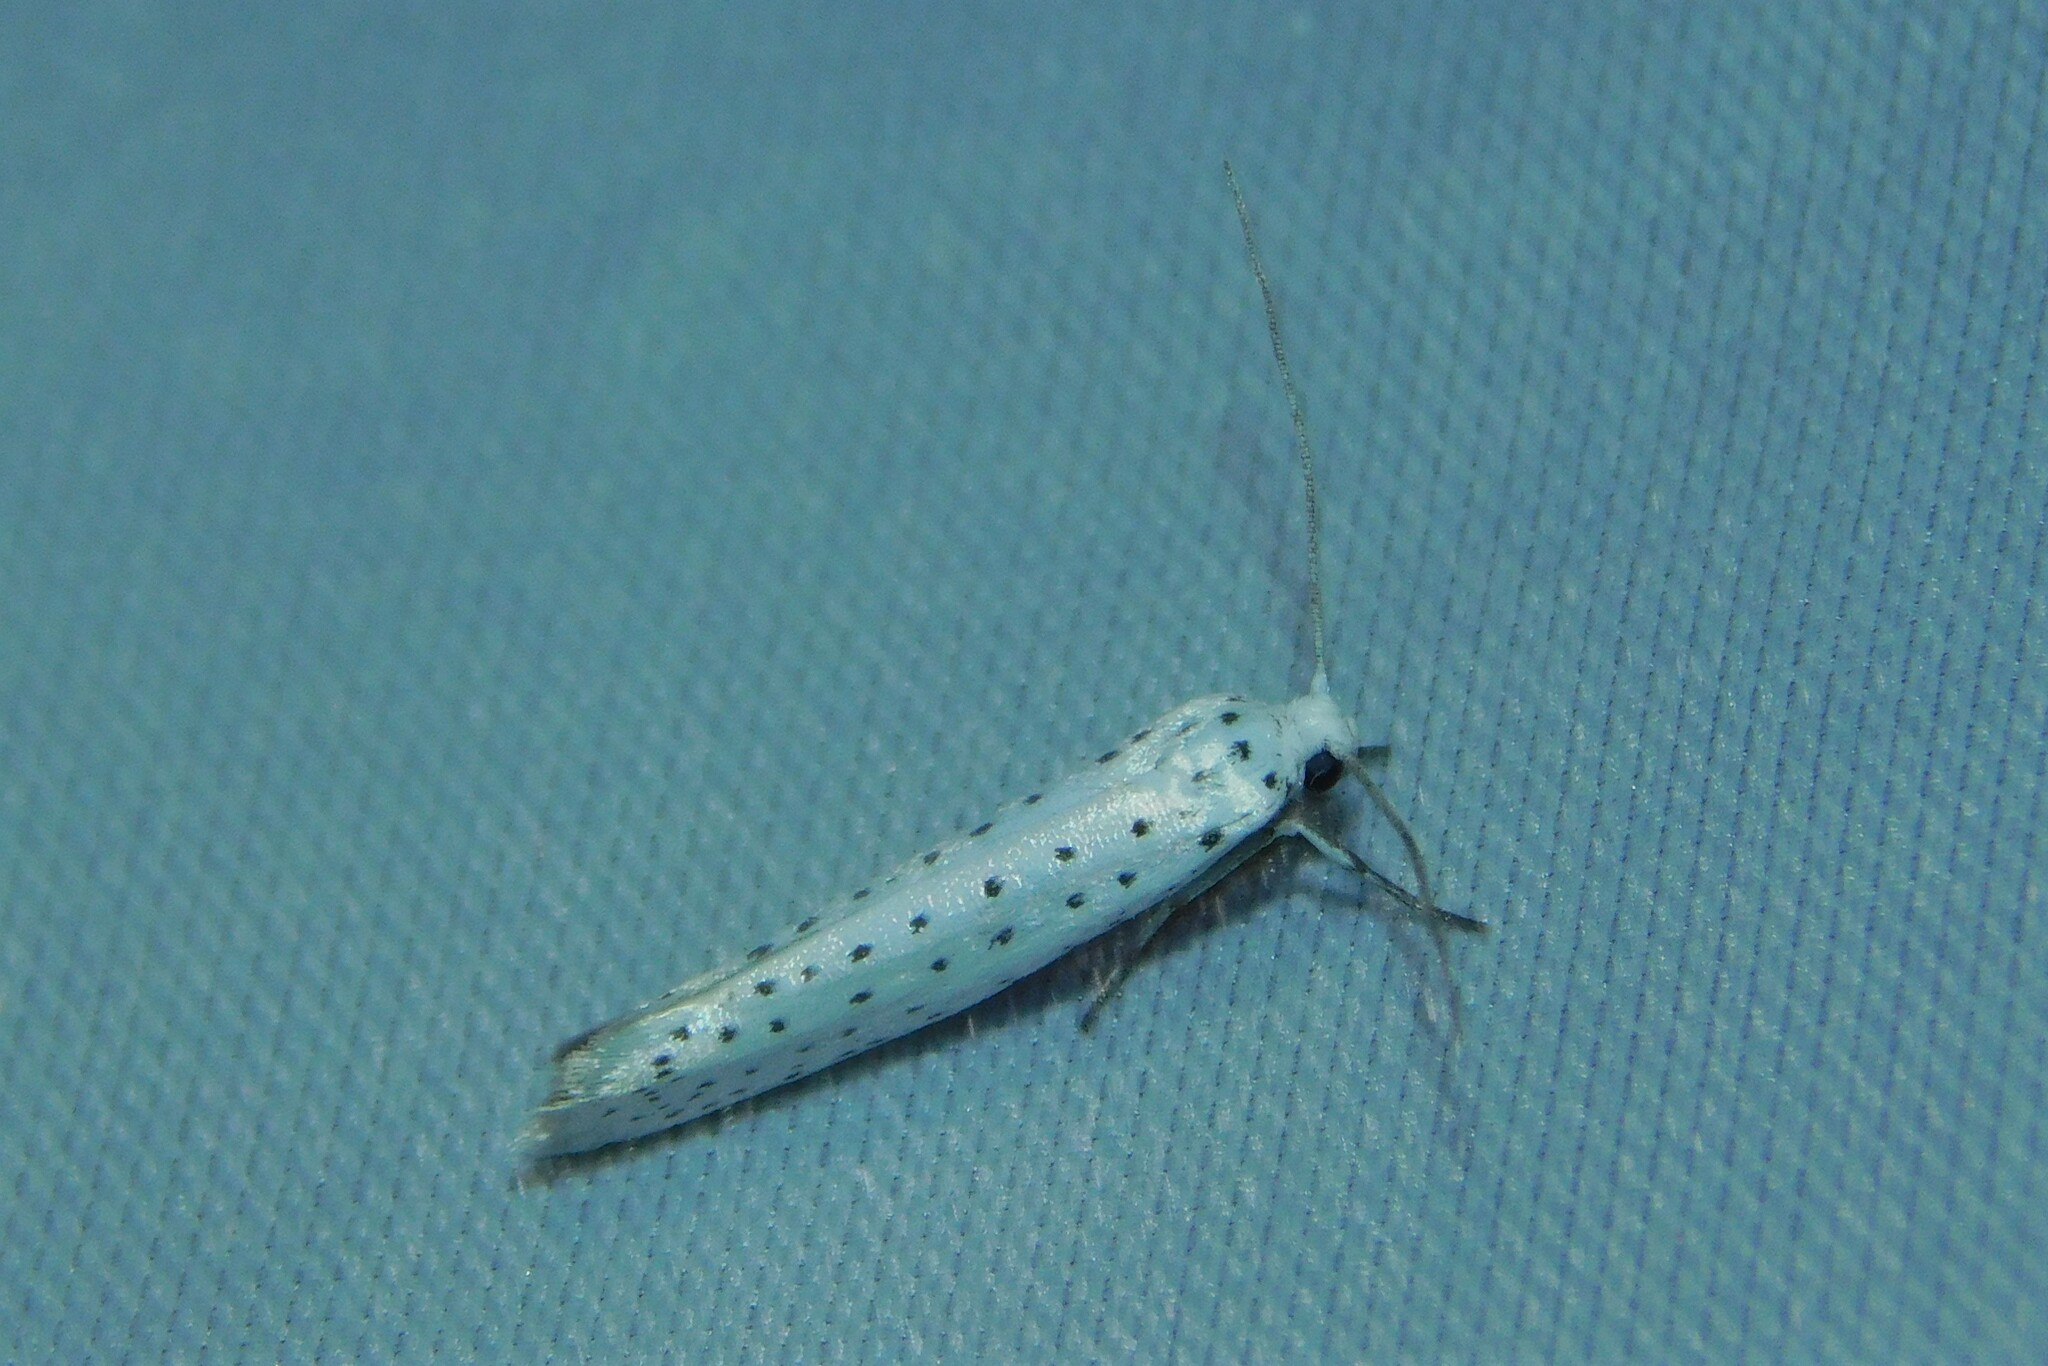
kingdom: Animalia
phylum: Arthropoda
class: Insecta
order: Lepidoptera
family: Yponomeutidae
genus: Yponomeuta
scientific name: Yponomeuta evonymella
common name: Bird-cherry ermine
